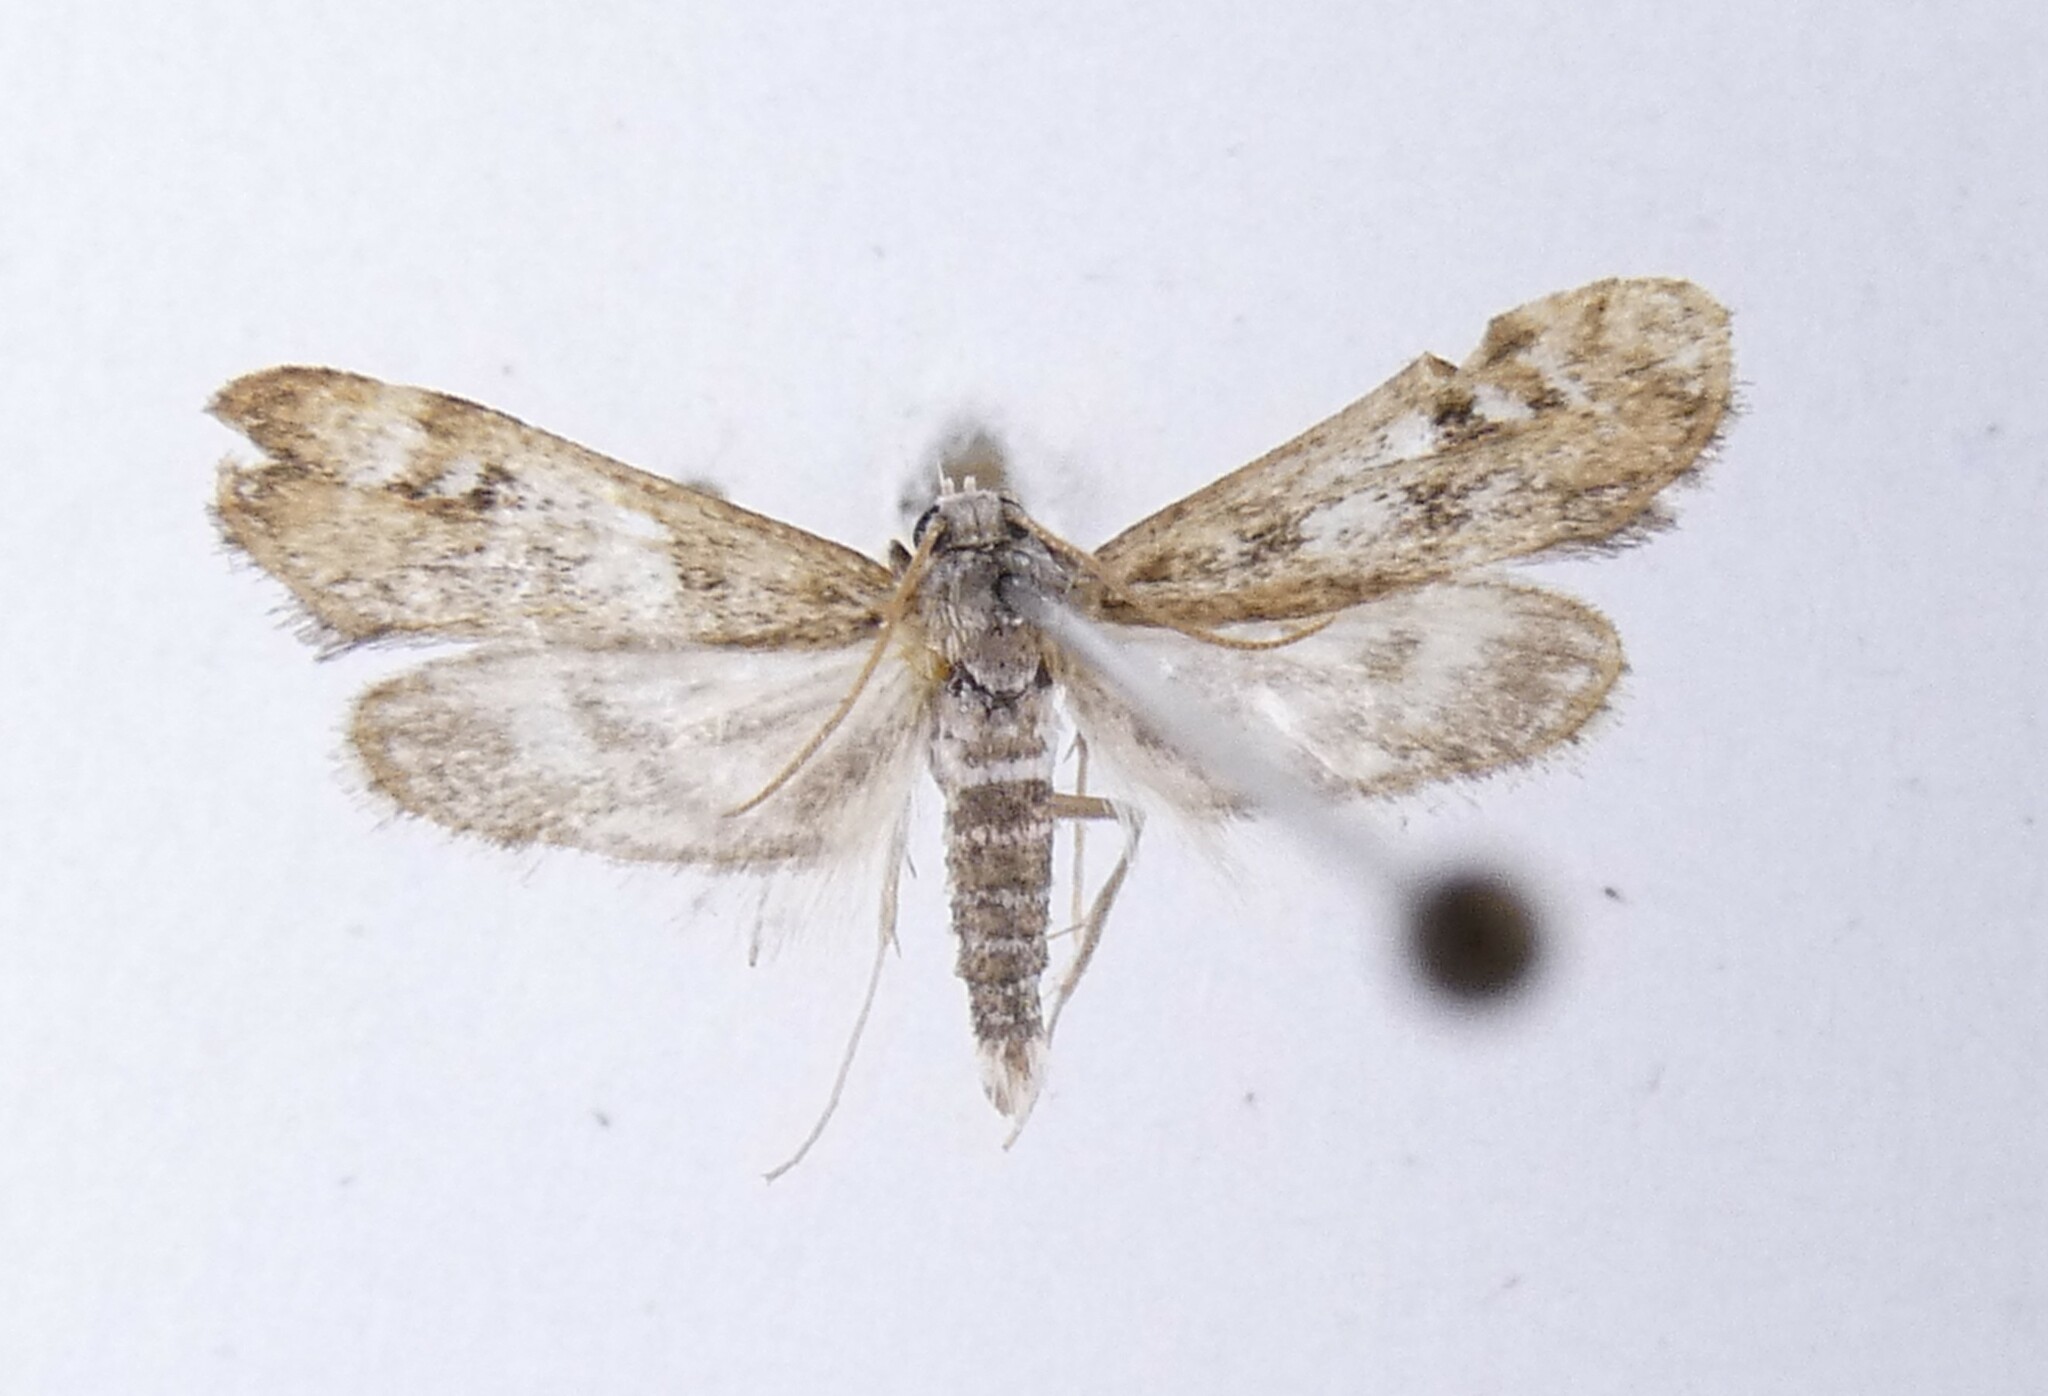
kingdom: Animalia
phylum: Arthropoda
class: Insecta
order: Lepidoptera
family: Crambidae
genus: Hygraula
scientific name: Hygraula nitens
